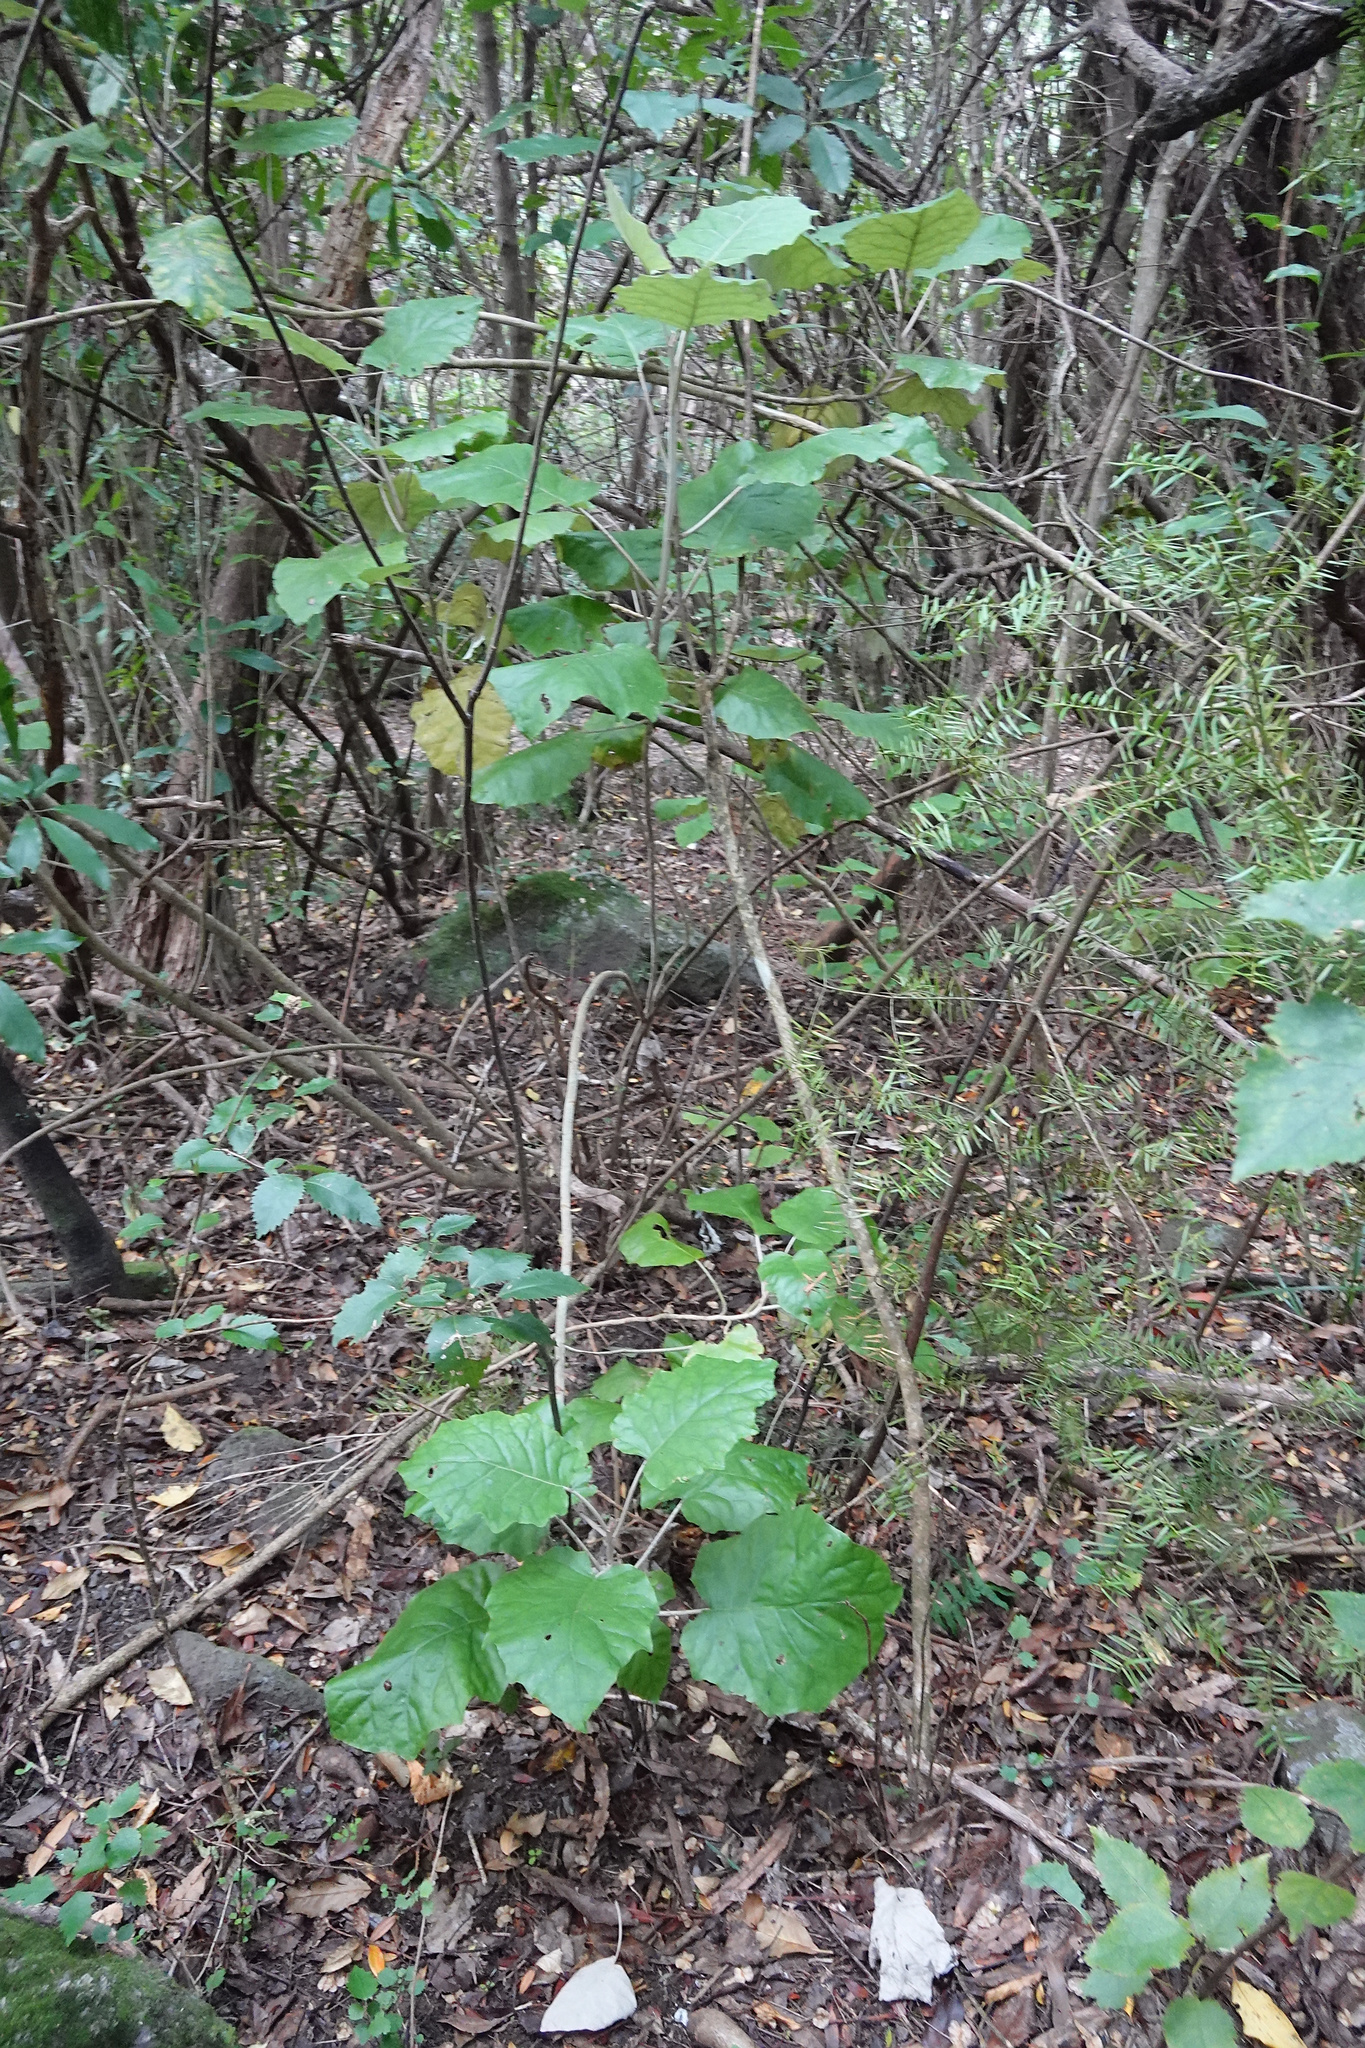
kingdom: Plantae
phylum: Tracheophyta
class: Magnoliopsida
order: Asterales
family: Asteraceae
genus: Brachyglottis
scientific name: Brachyglottis repanda
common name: Hedge ragwort
